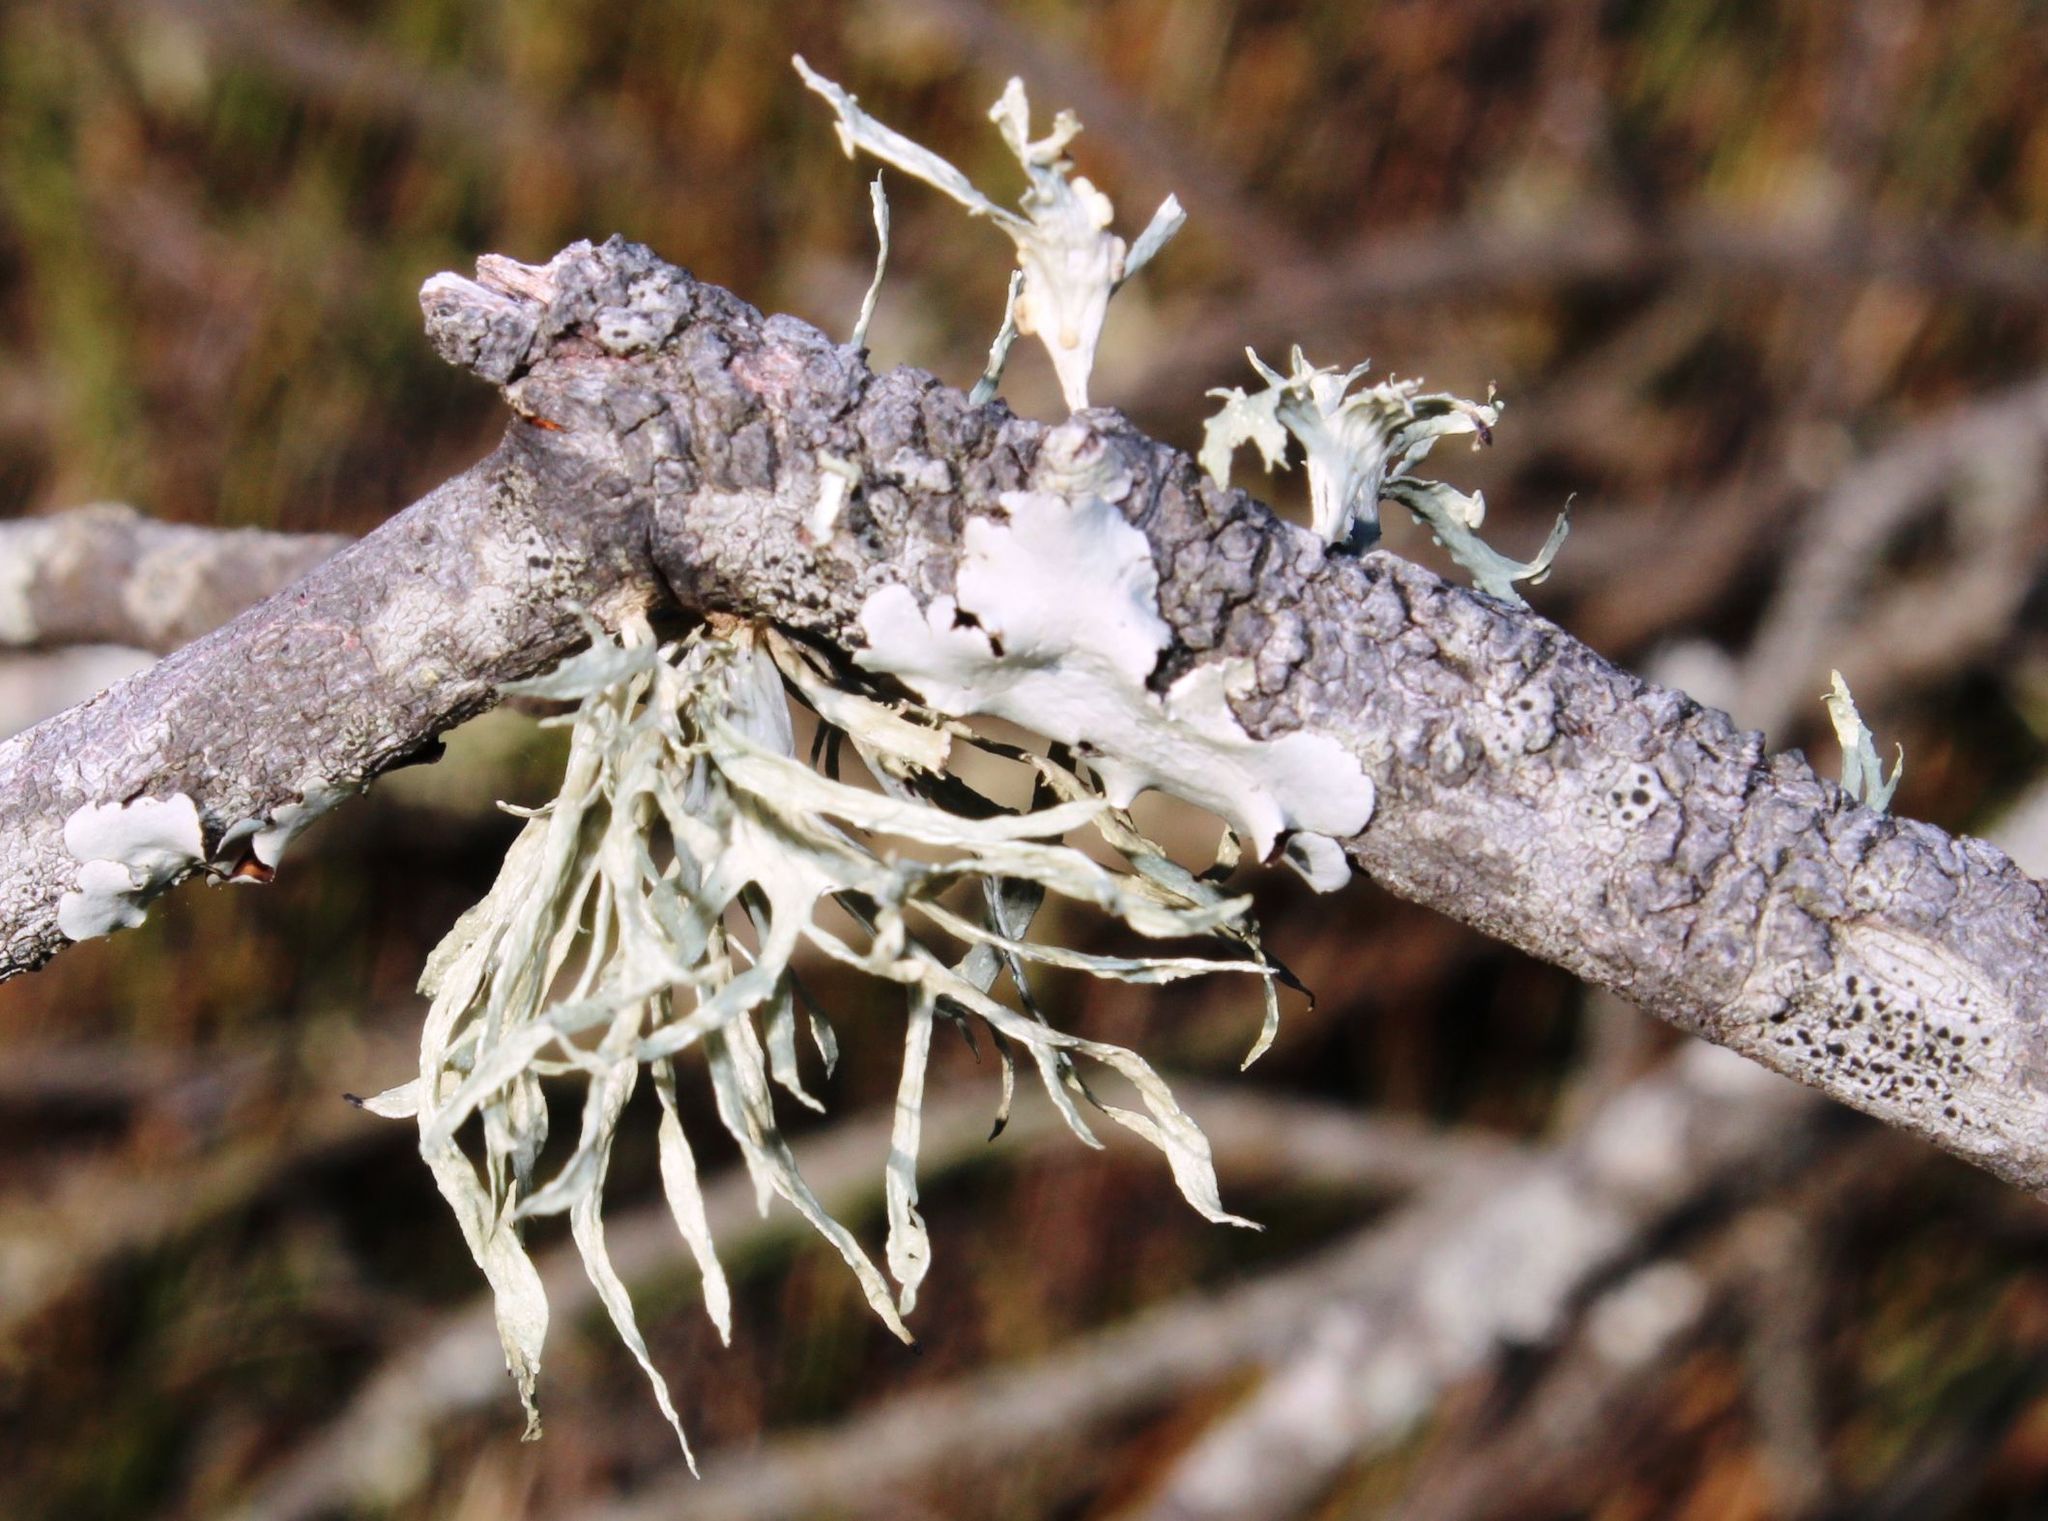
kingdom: Fungi
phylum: Ascomycota
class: Lecanoromycetes
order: Lecanorales
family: Ramalinaceae
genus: Ramalina
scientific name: Ramalina celastri
